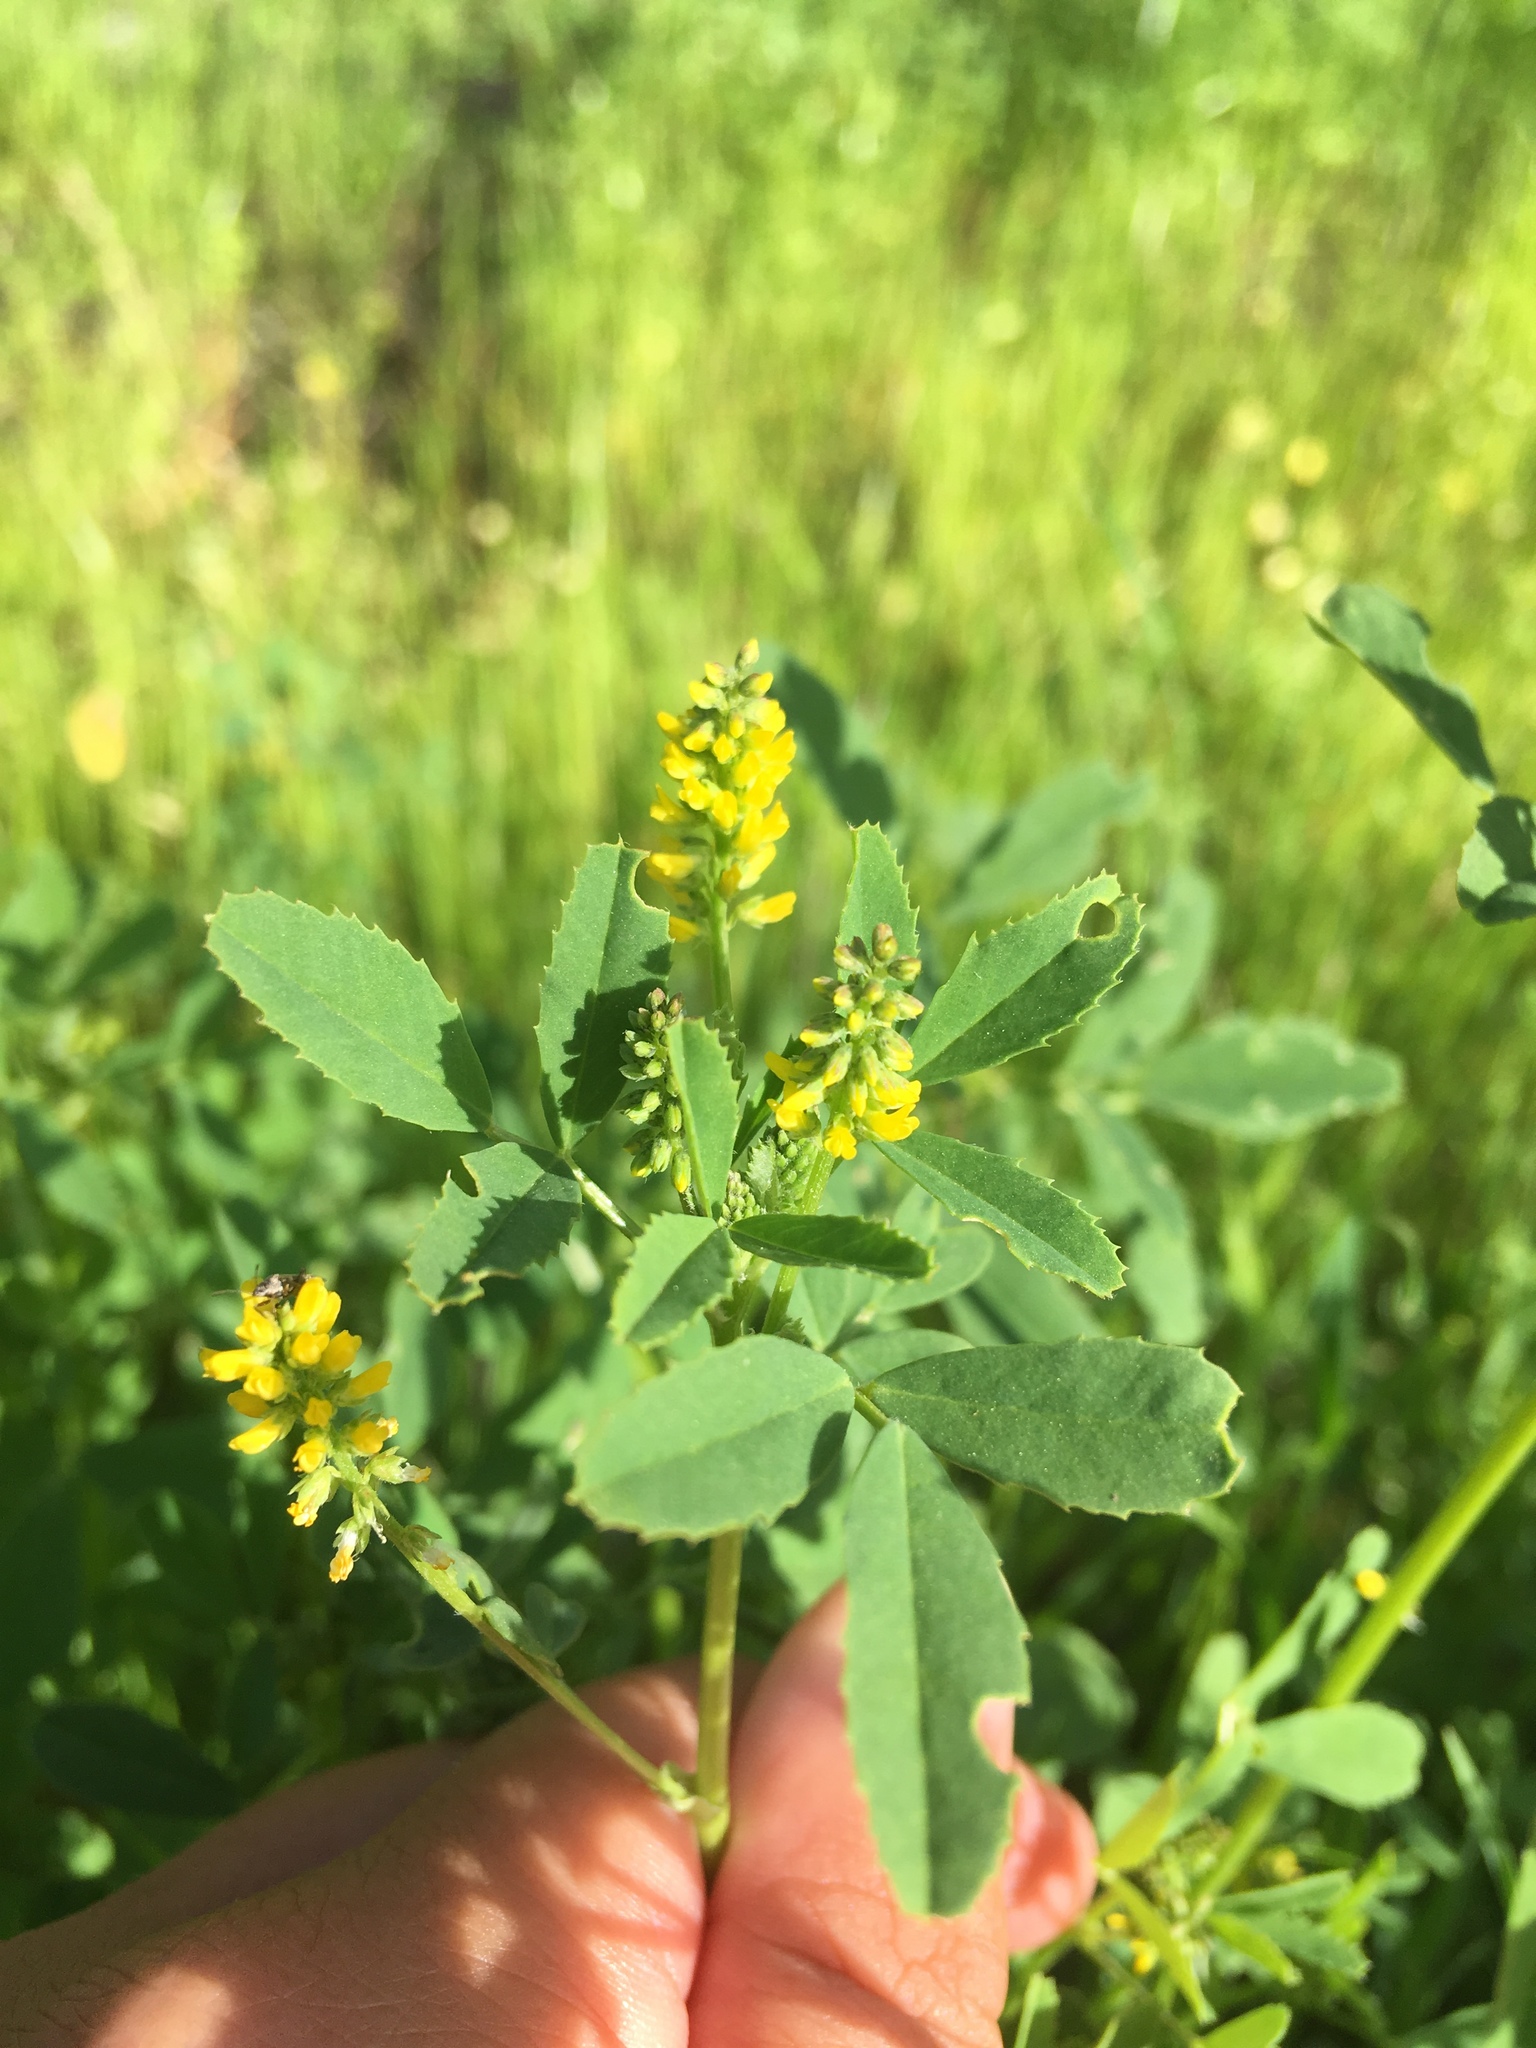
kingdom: Plantae
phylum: Tracheophyta
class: Magnoliopsida
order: Fabales
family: Fabaceae
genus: Melilotus
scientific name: Melilotus indicus
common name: Small melilot
